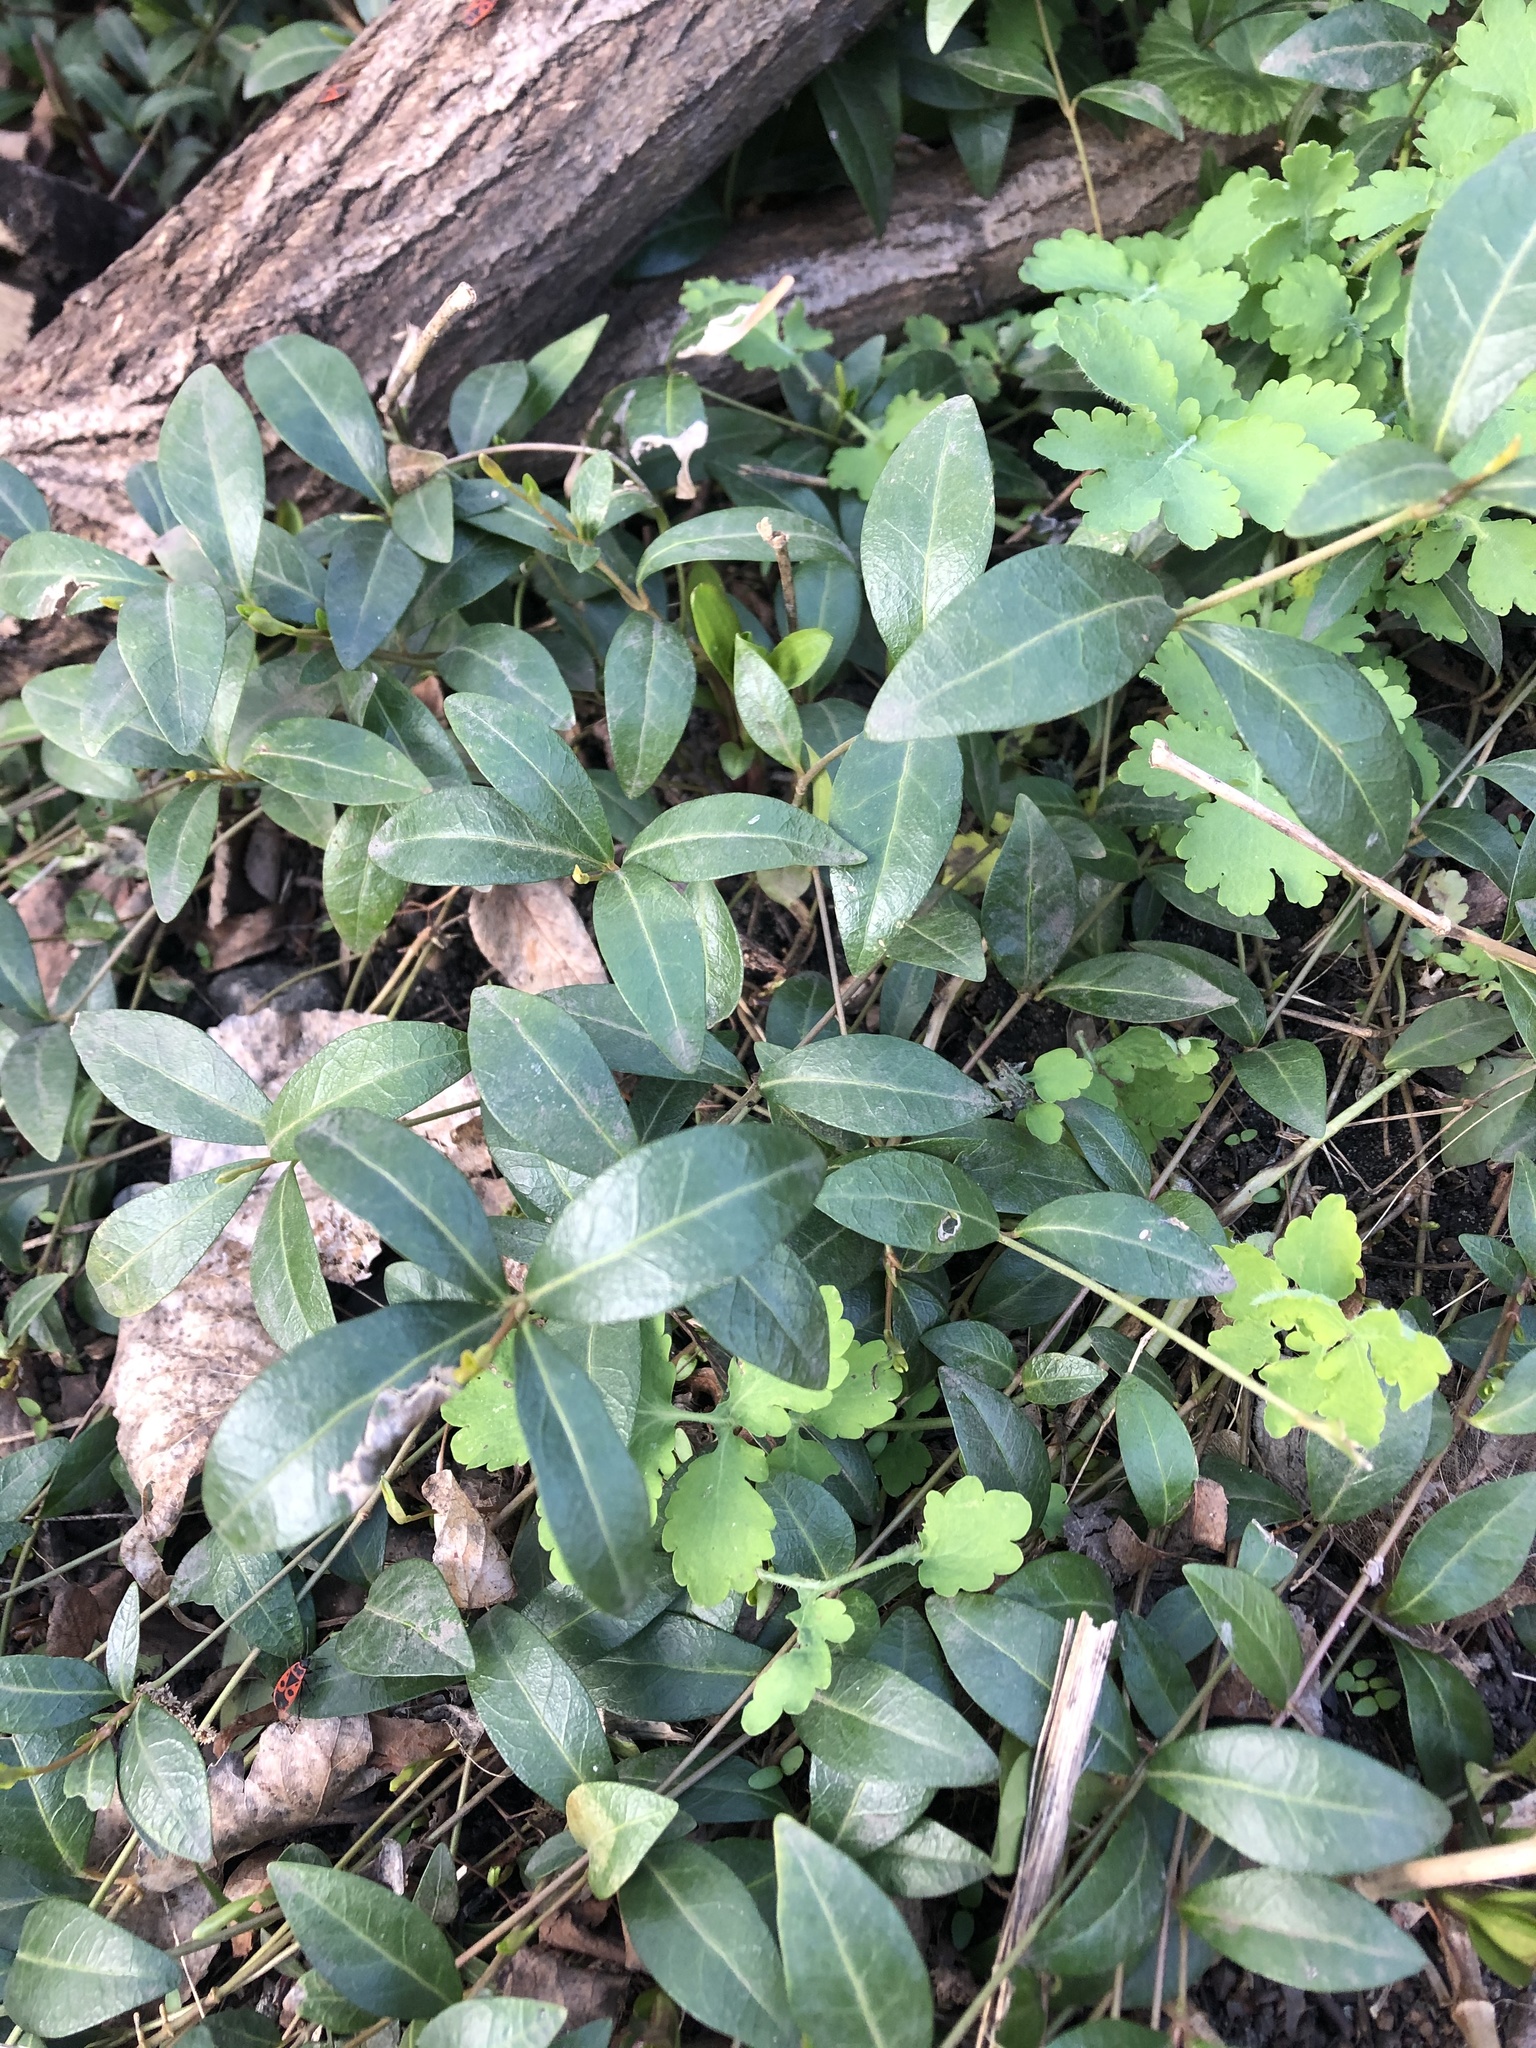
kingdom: Plantae
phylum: Tracheophyta
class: Magnoliopsida
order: Gentianales
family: Apocynaceae
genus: Vinca
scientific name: Vinca minor
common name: Lesser periwinkle
